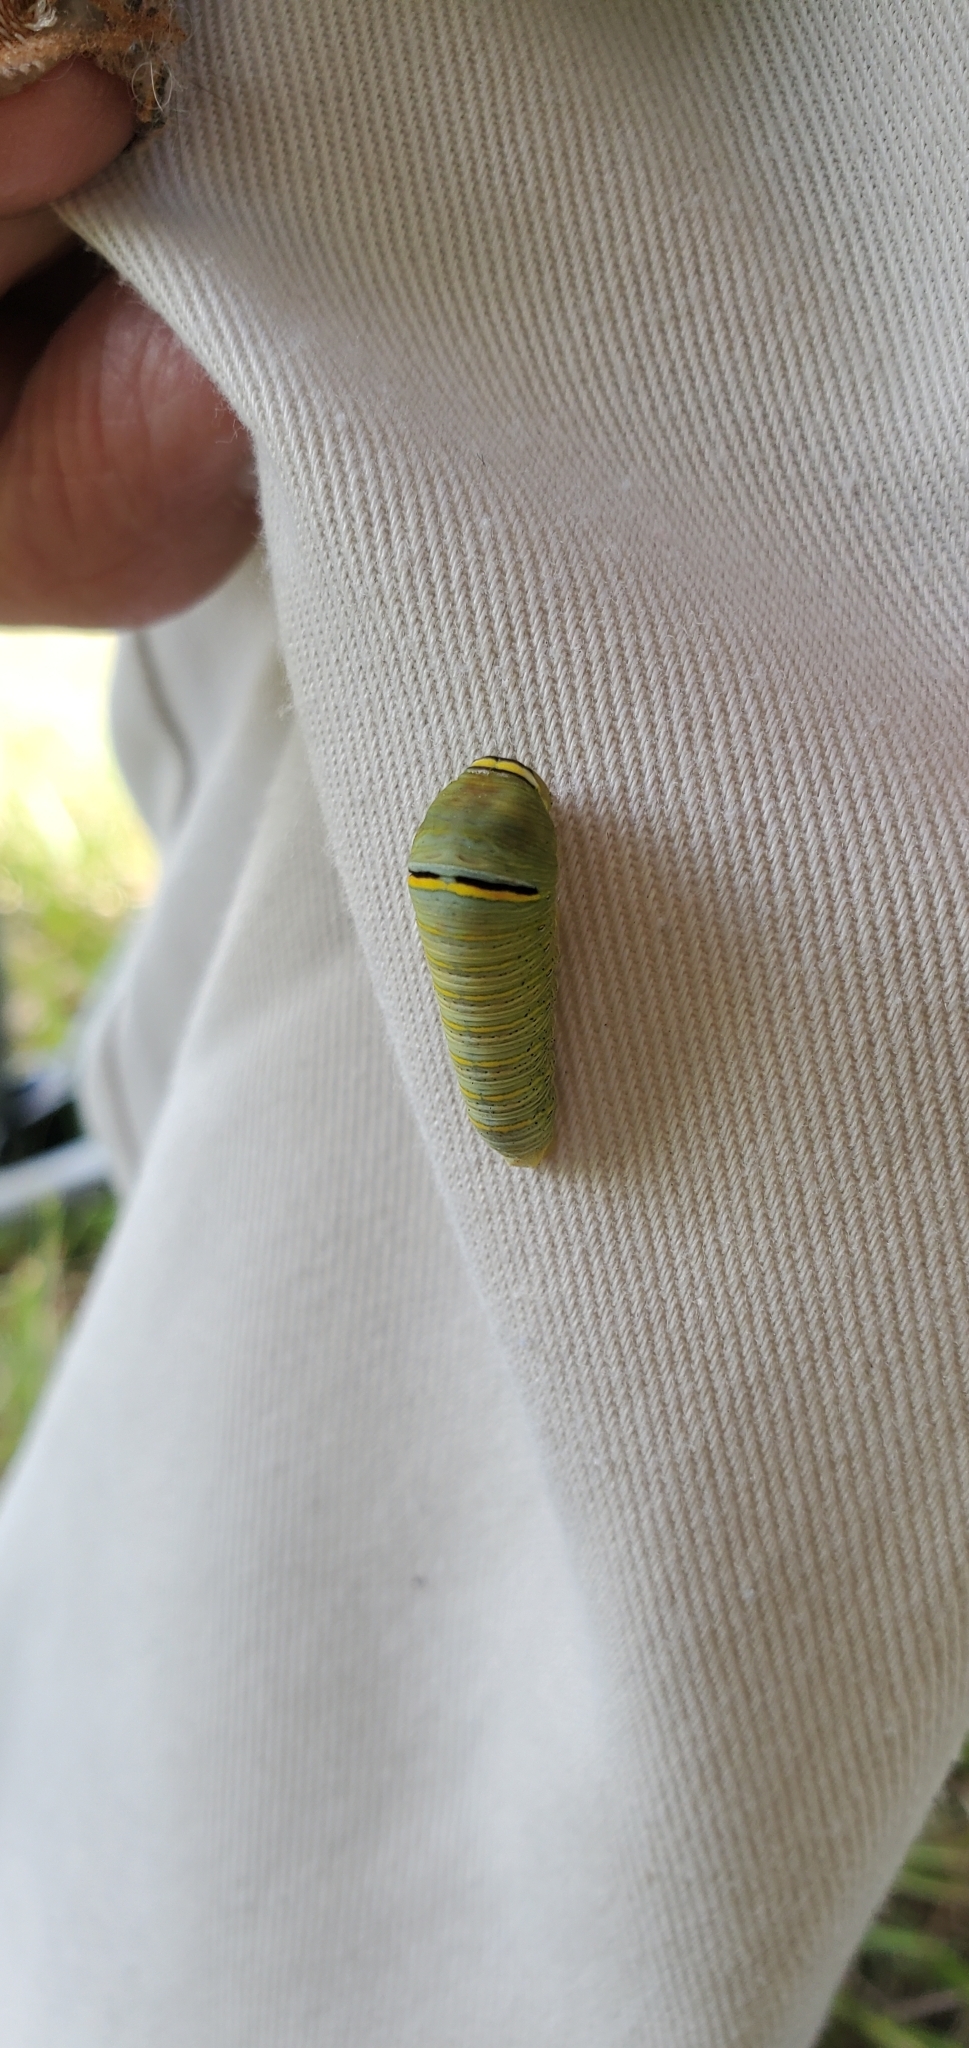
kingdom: Animalia
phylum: Arthropoda
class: Insecta
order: Lepidoptera
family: Papilionidae
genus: Protographium
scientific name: Protographium marcellus
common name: Zebra swallowtail
